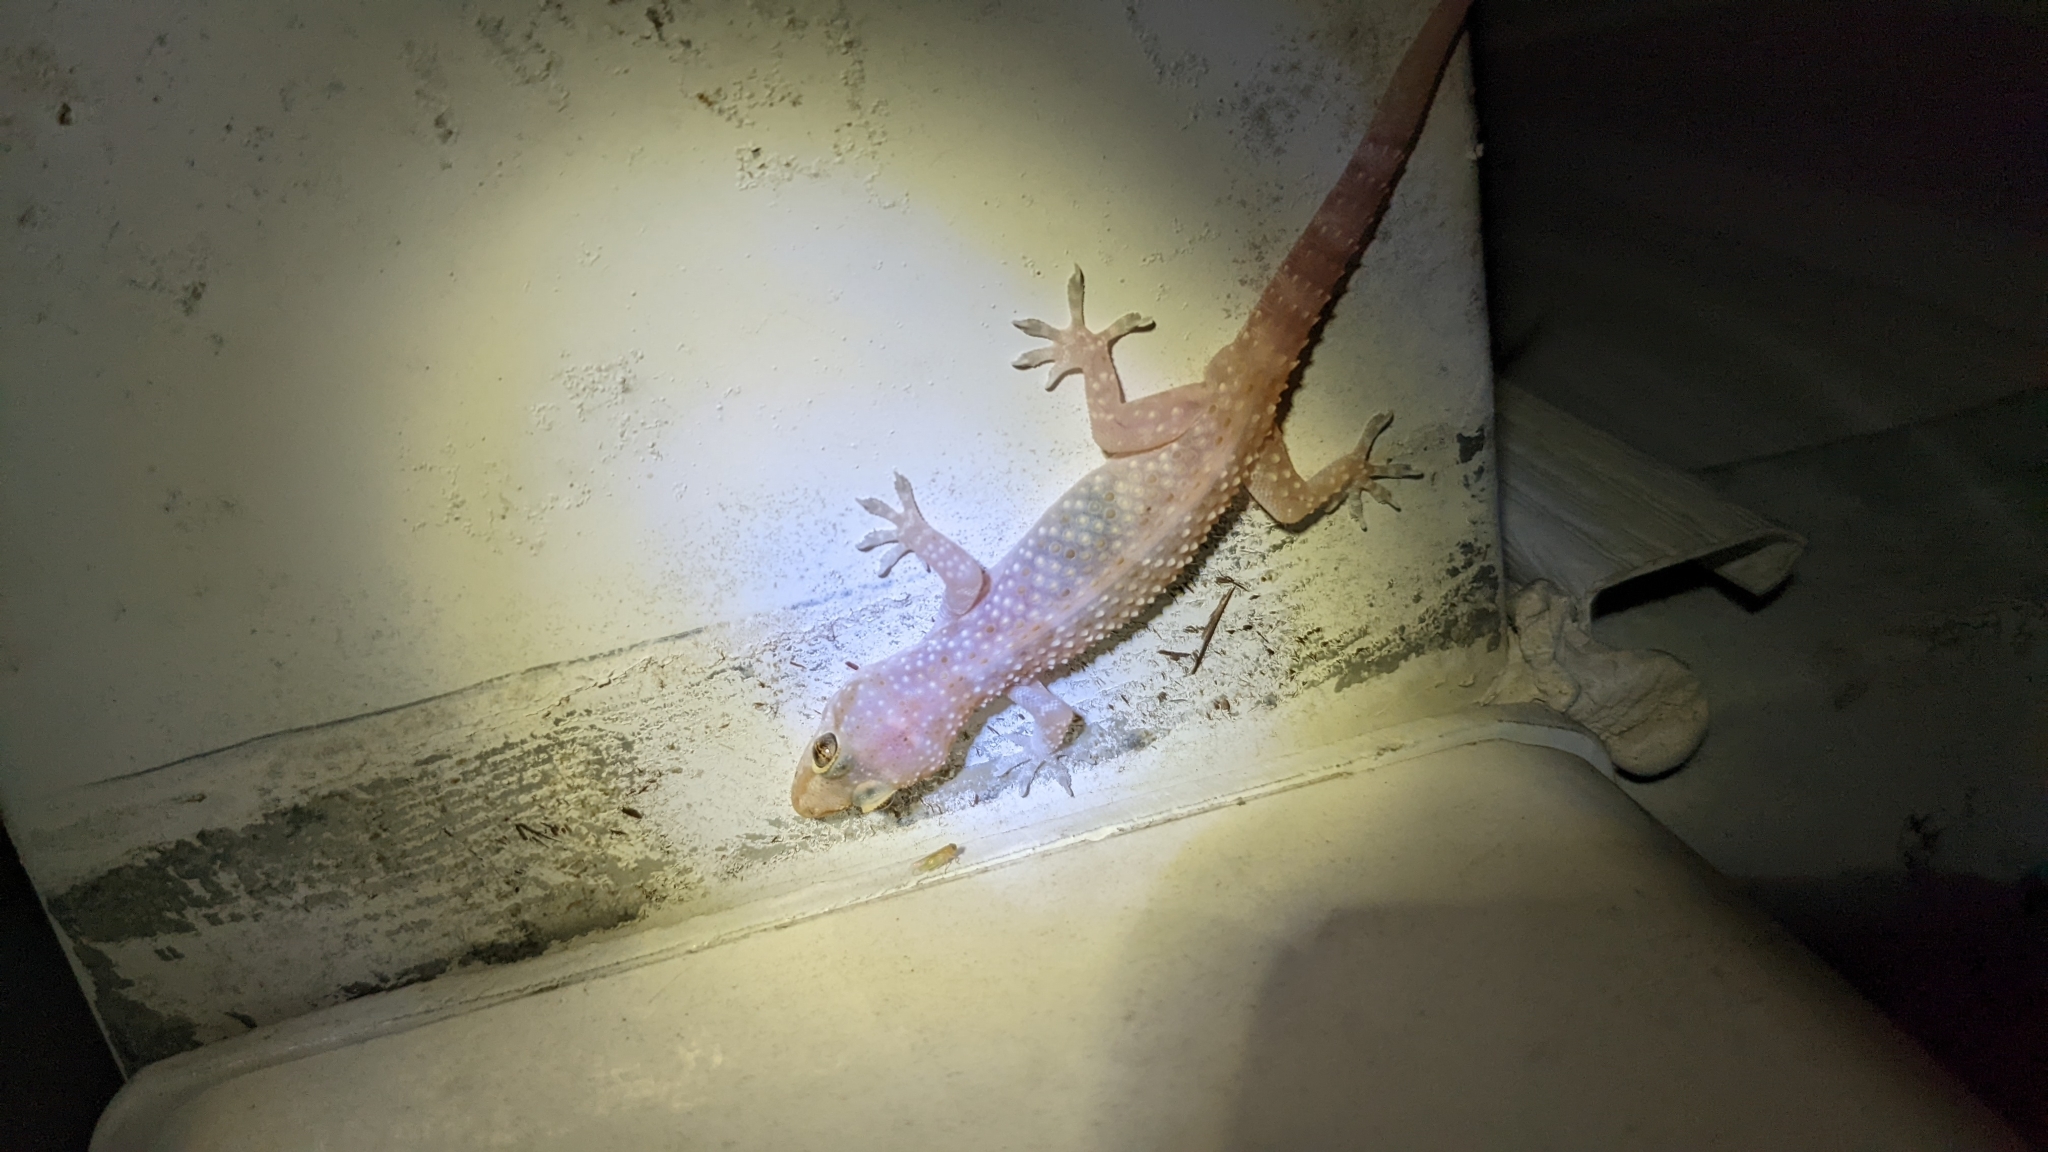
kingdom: Animalia
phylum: Chordata
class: Squamata
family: Gekkonidae
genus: Hemidactylus
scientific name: Hemidactylus turcicus
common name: Turkish gecko
